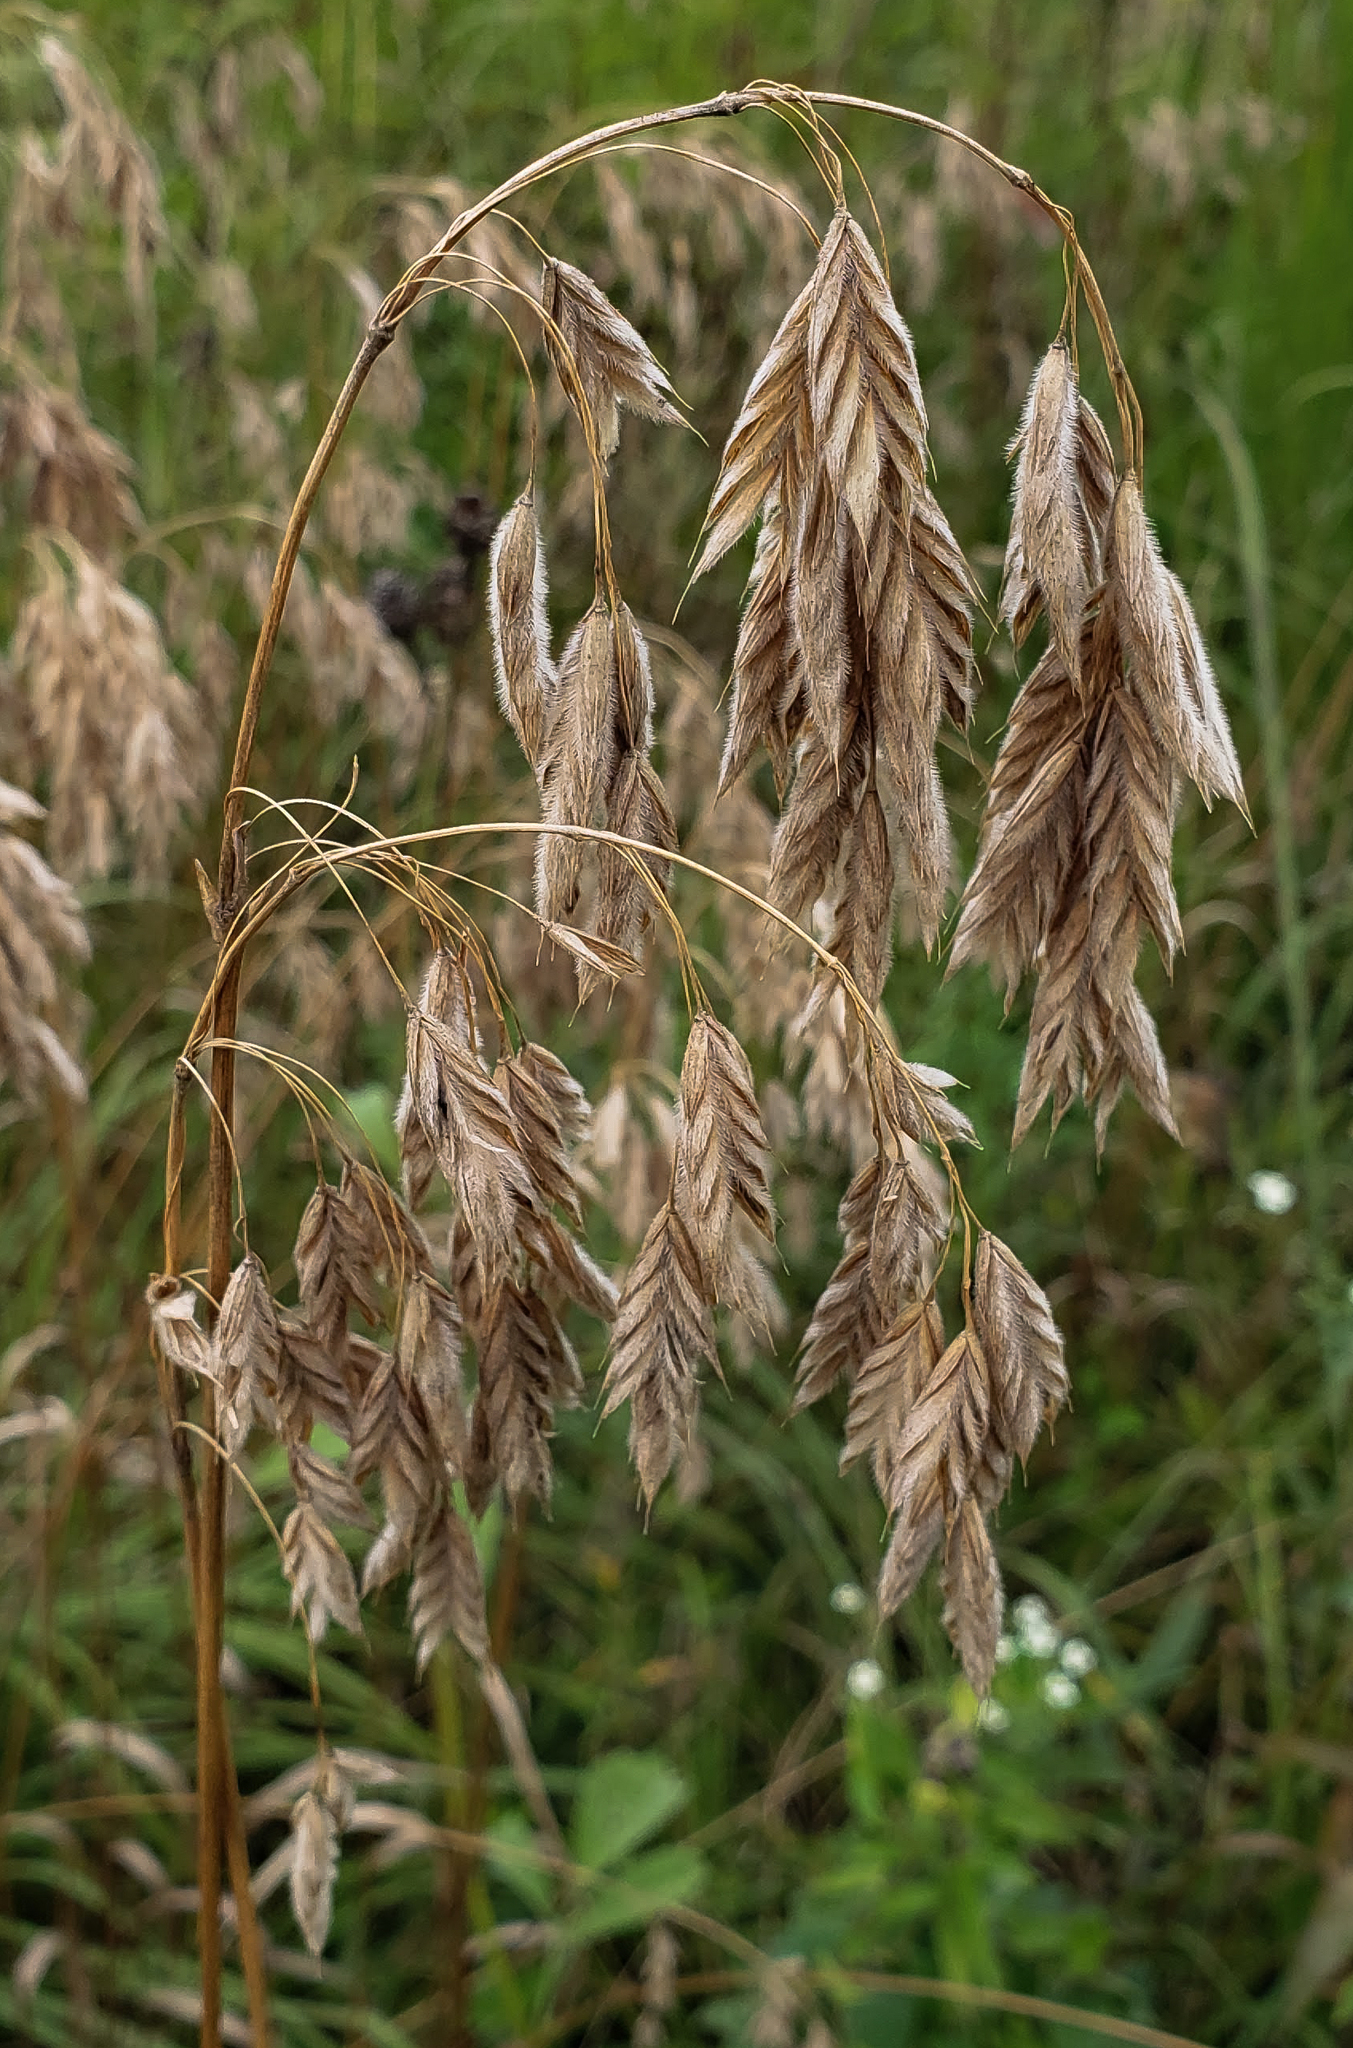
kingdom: Plantae
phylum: Tracheophyta
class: Liliopsida
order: Poales
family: Poaceae
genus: Bromus
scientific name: Bromus kalmii
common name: Kalm brome
